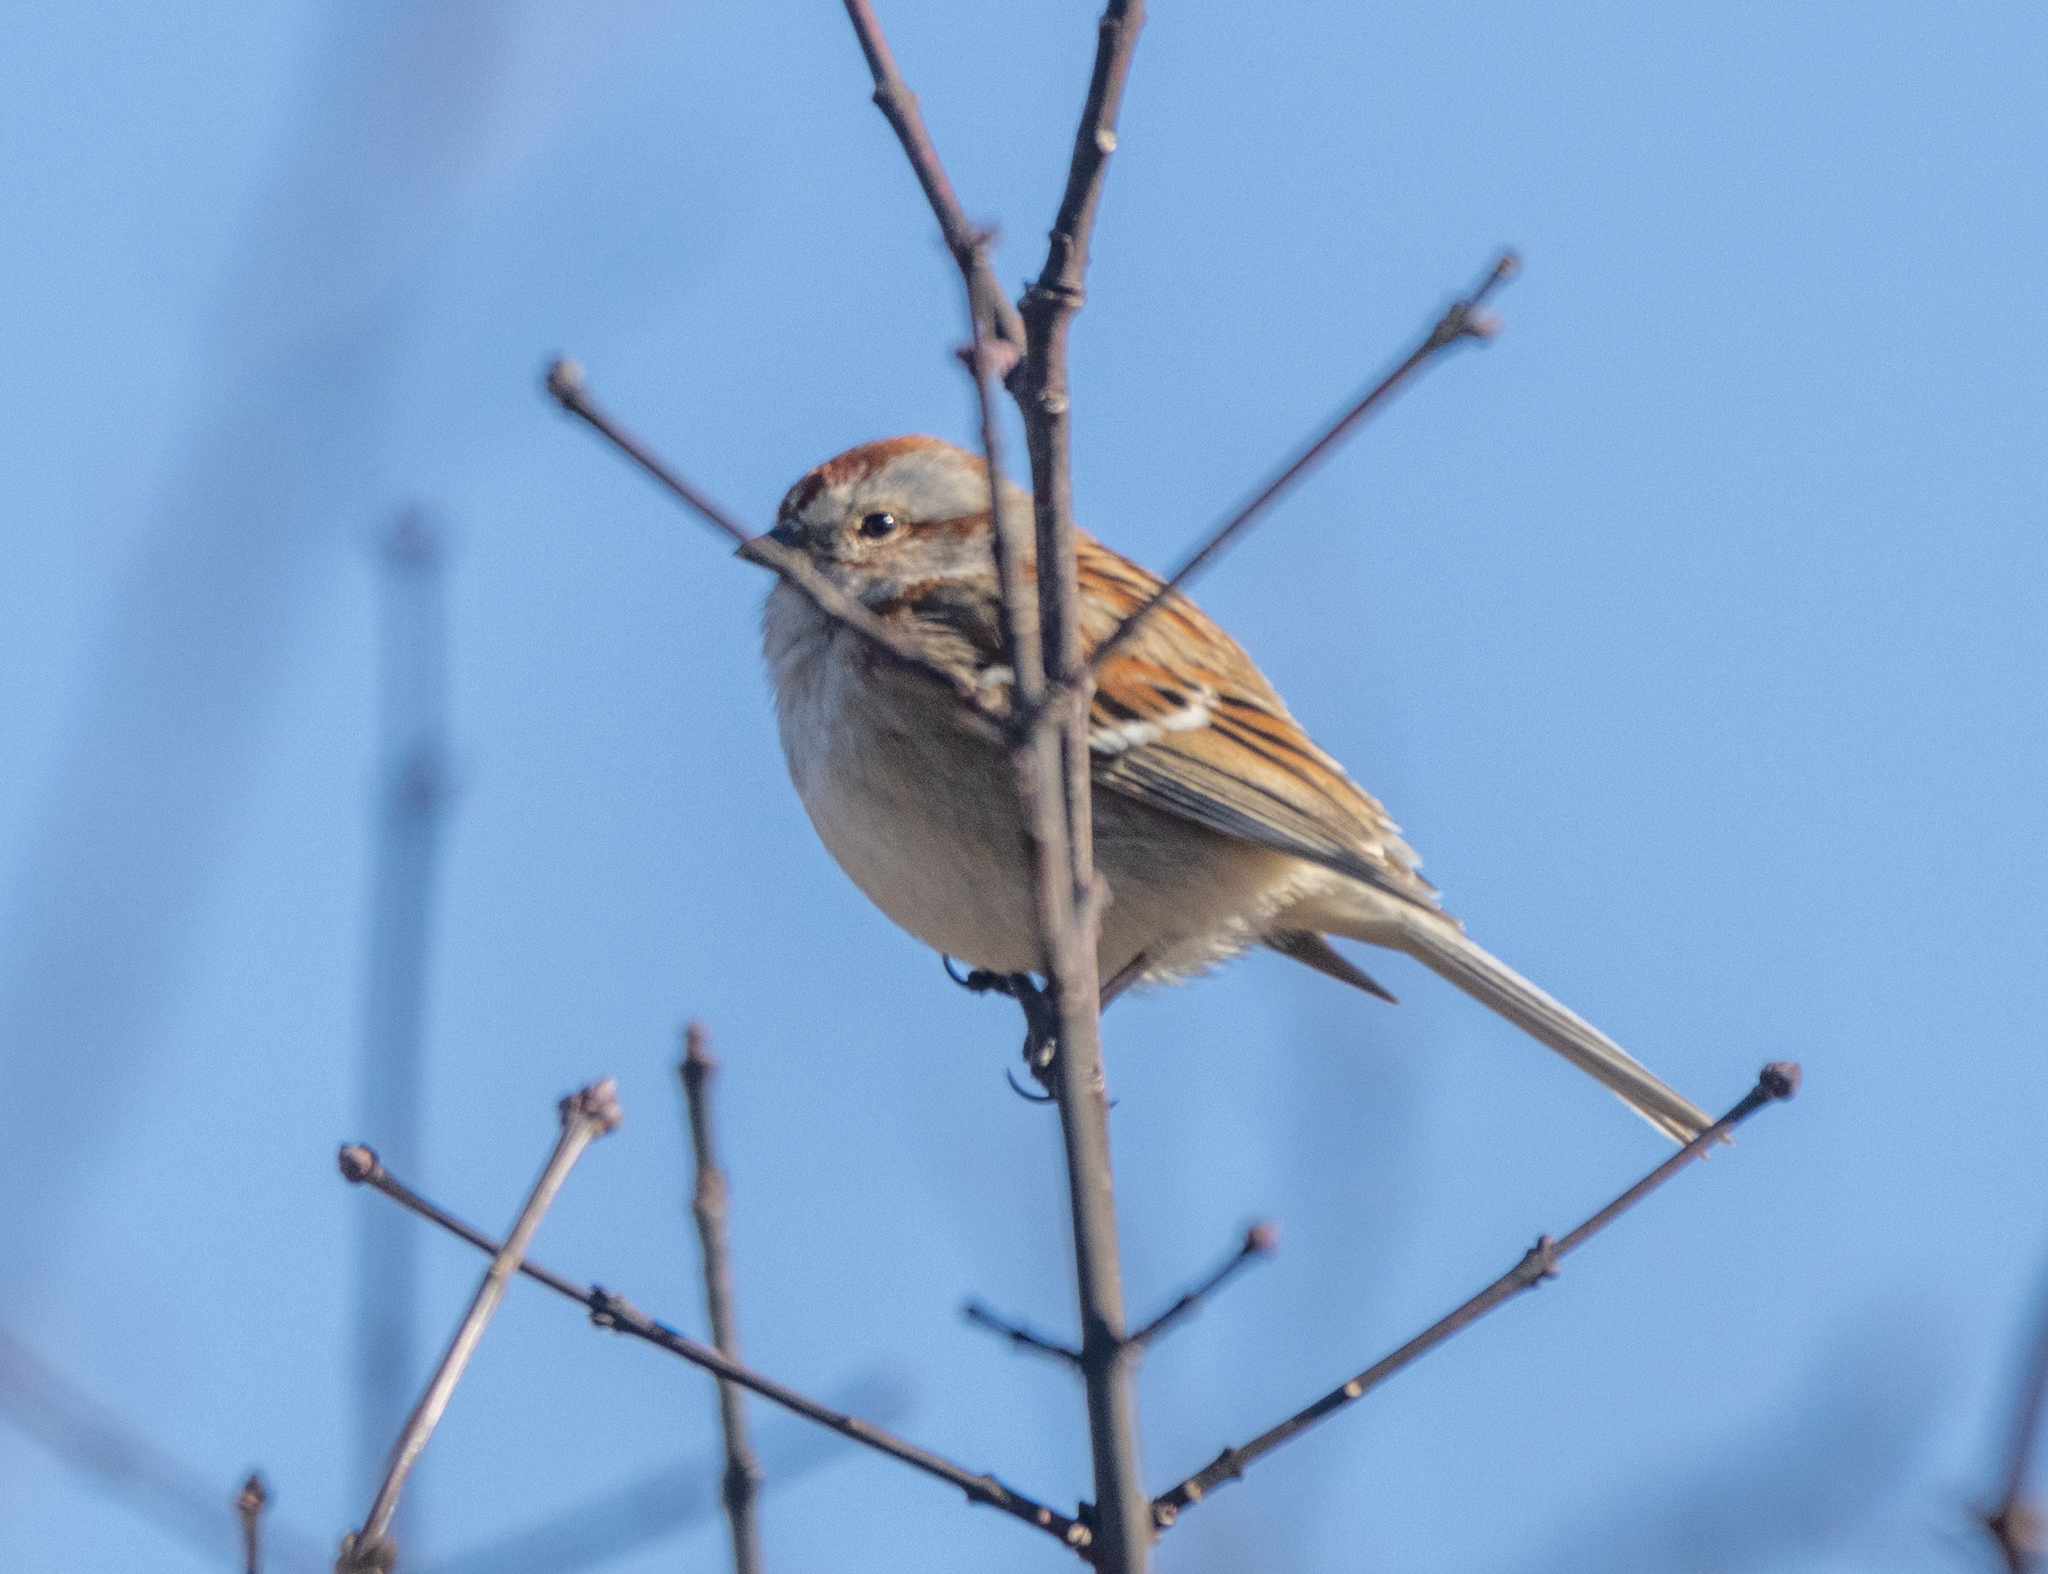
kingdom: Animalia
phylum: Chordata
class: Aves
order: Passeriformes
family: Passerellidae
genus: Spizelloides
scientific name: Spizelloides arborea
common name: American tree sparrow
